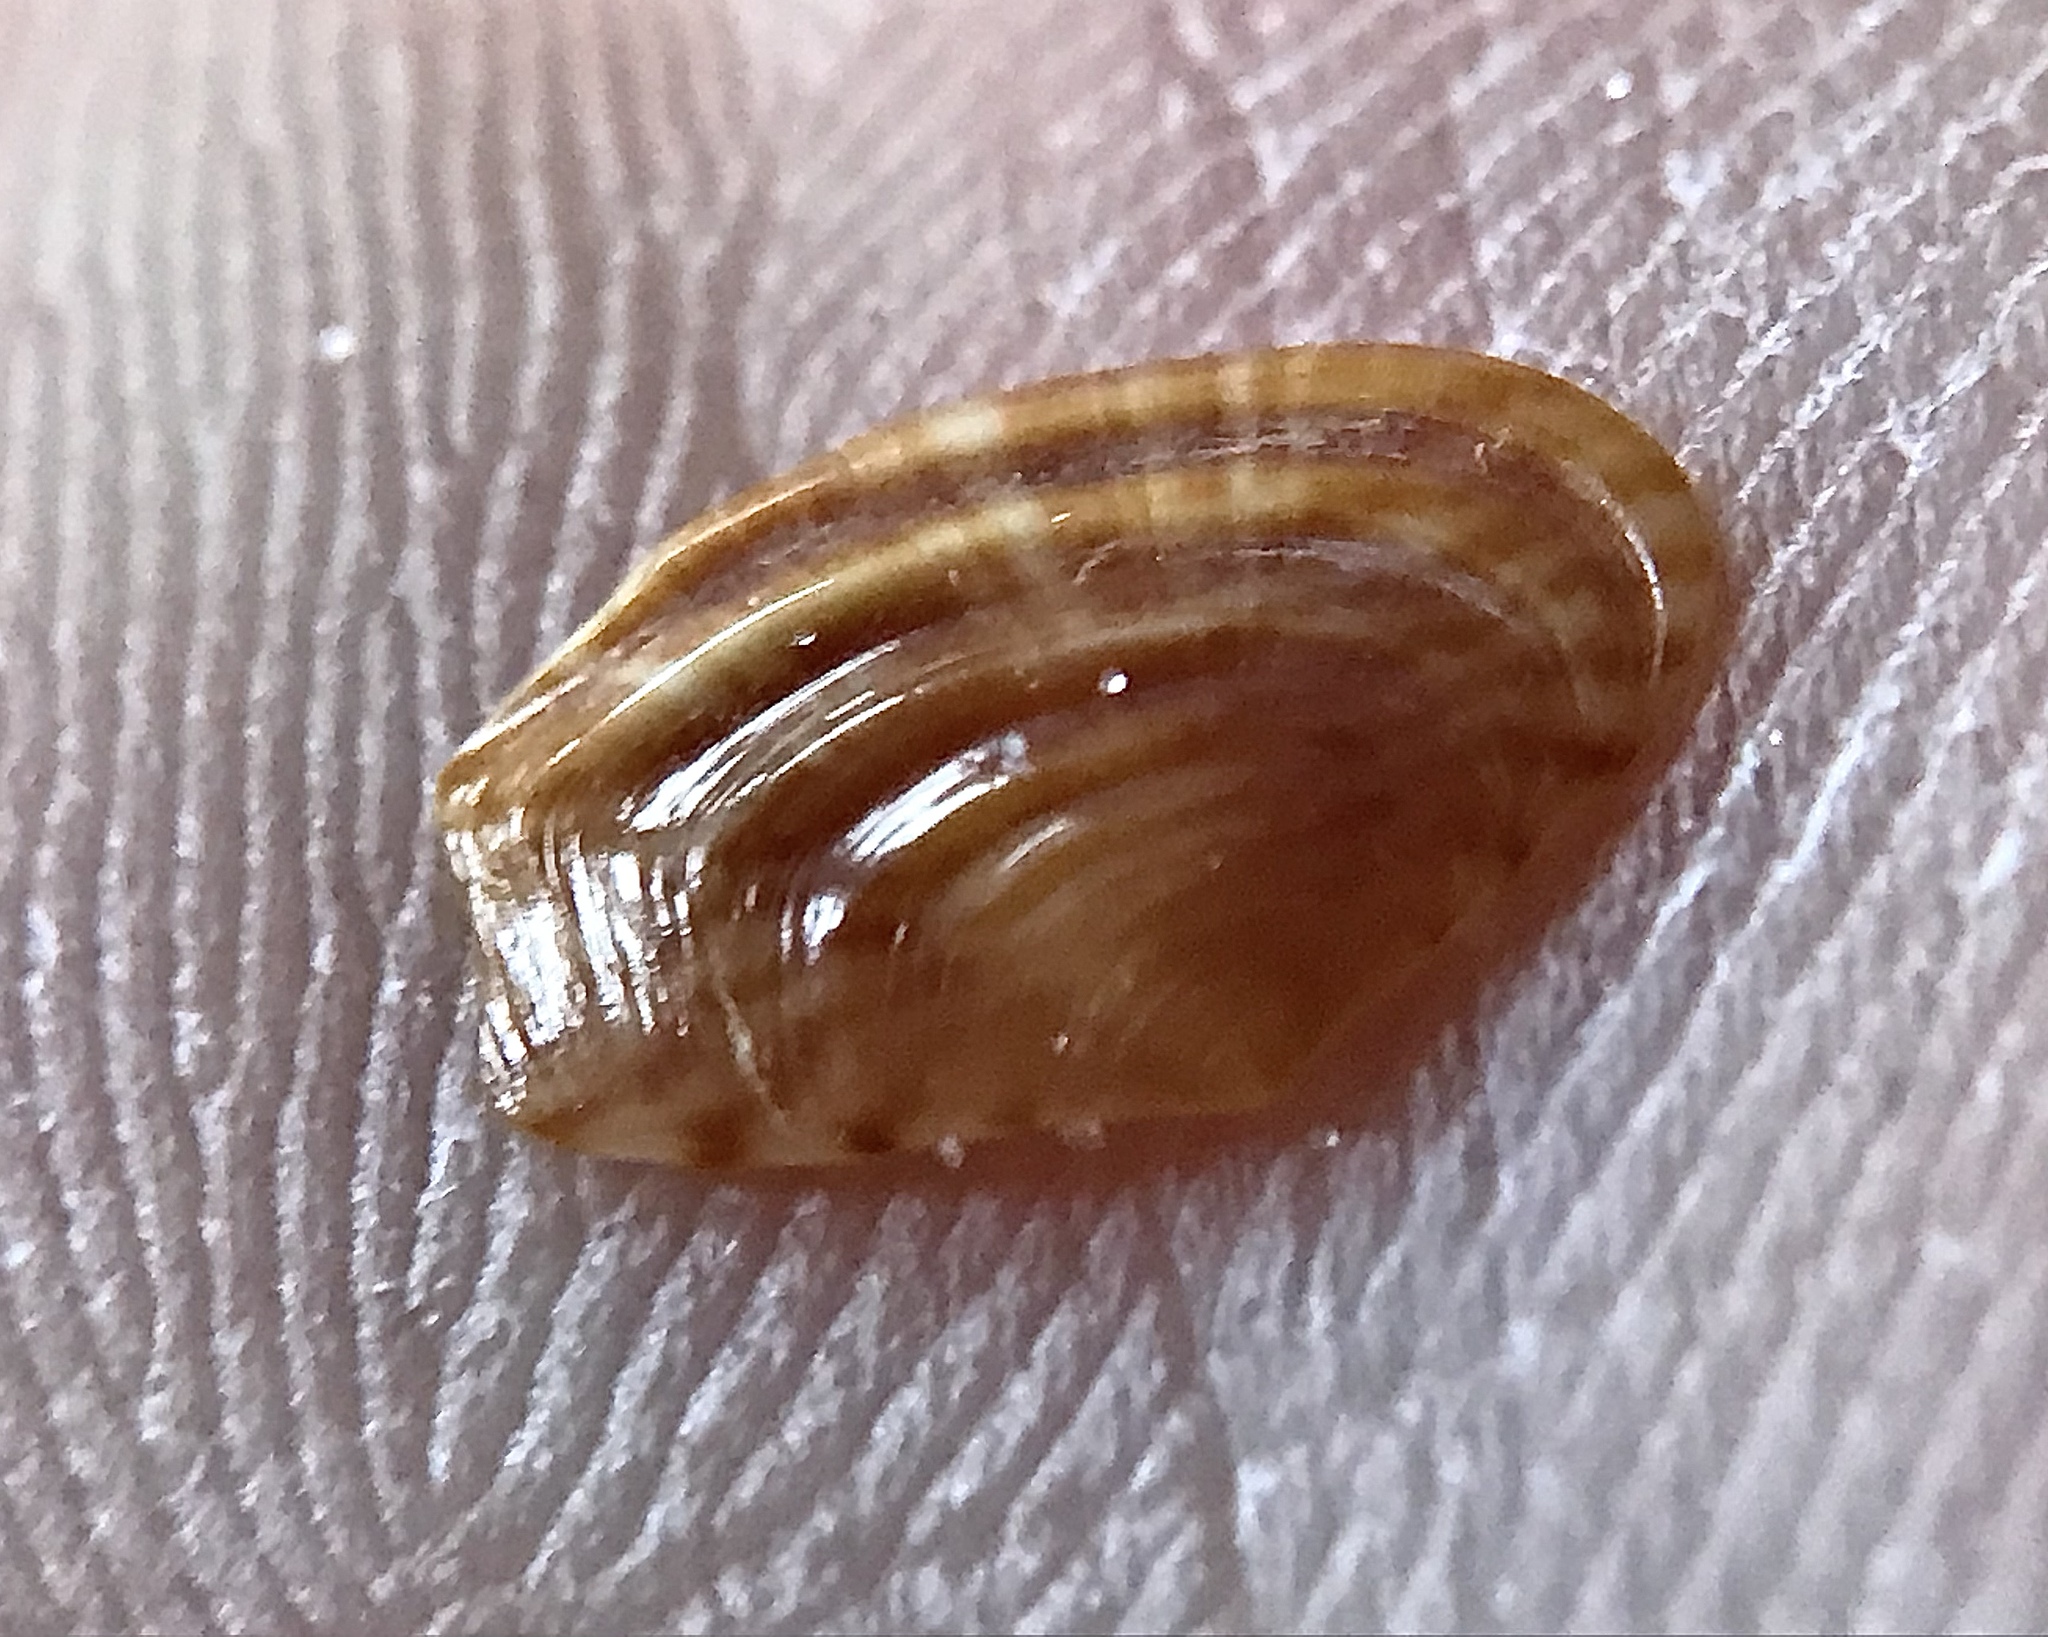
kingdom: Animalia
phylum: Mollusca
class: Bivalvia
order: Carditida
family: Crassatellidae
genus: Kalolophus
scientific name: Kalolophus speciosus
